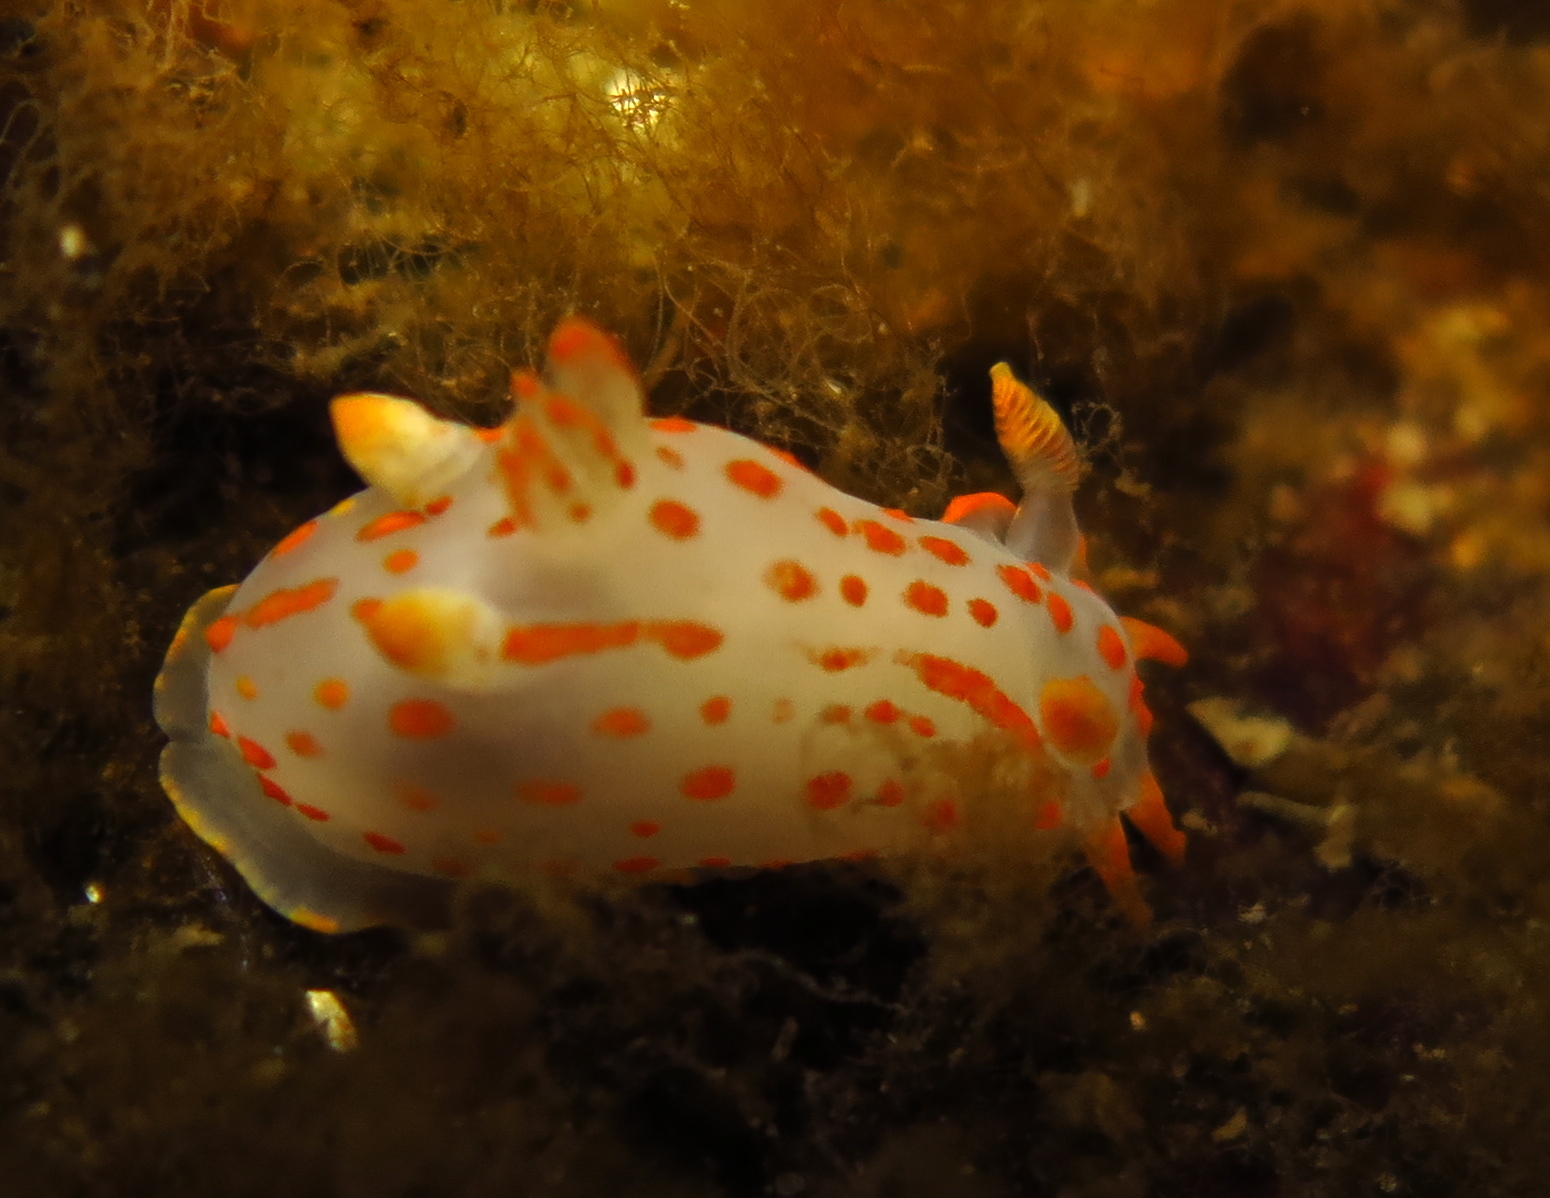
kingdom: Animalia
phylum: Mollusca
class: Gastropoda
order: Nudibranchia
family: Polyceridae
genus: Polycera
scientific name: Polycera quadrilineata
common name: Four-striped polycera
